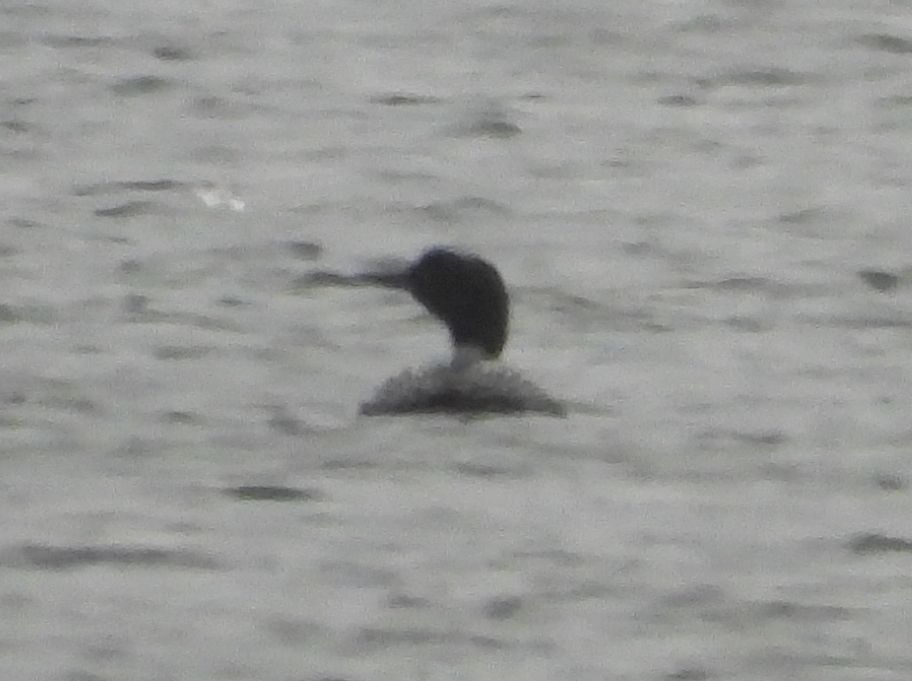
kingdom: Animalia
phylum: Chordata
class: Aves
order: Gaviiformes
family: Gaviidae
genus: Gavia
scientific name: Gavia immer
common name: Common loon
